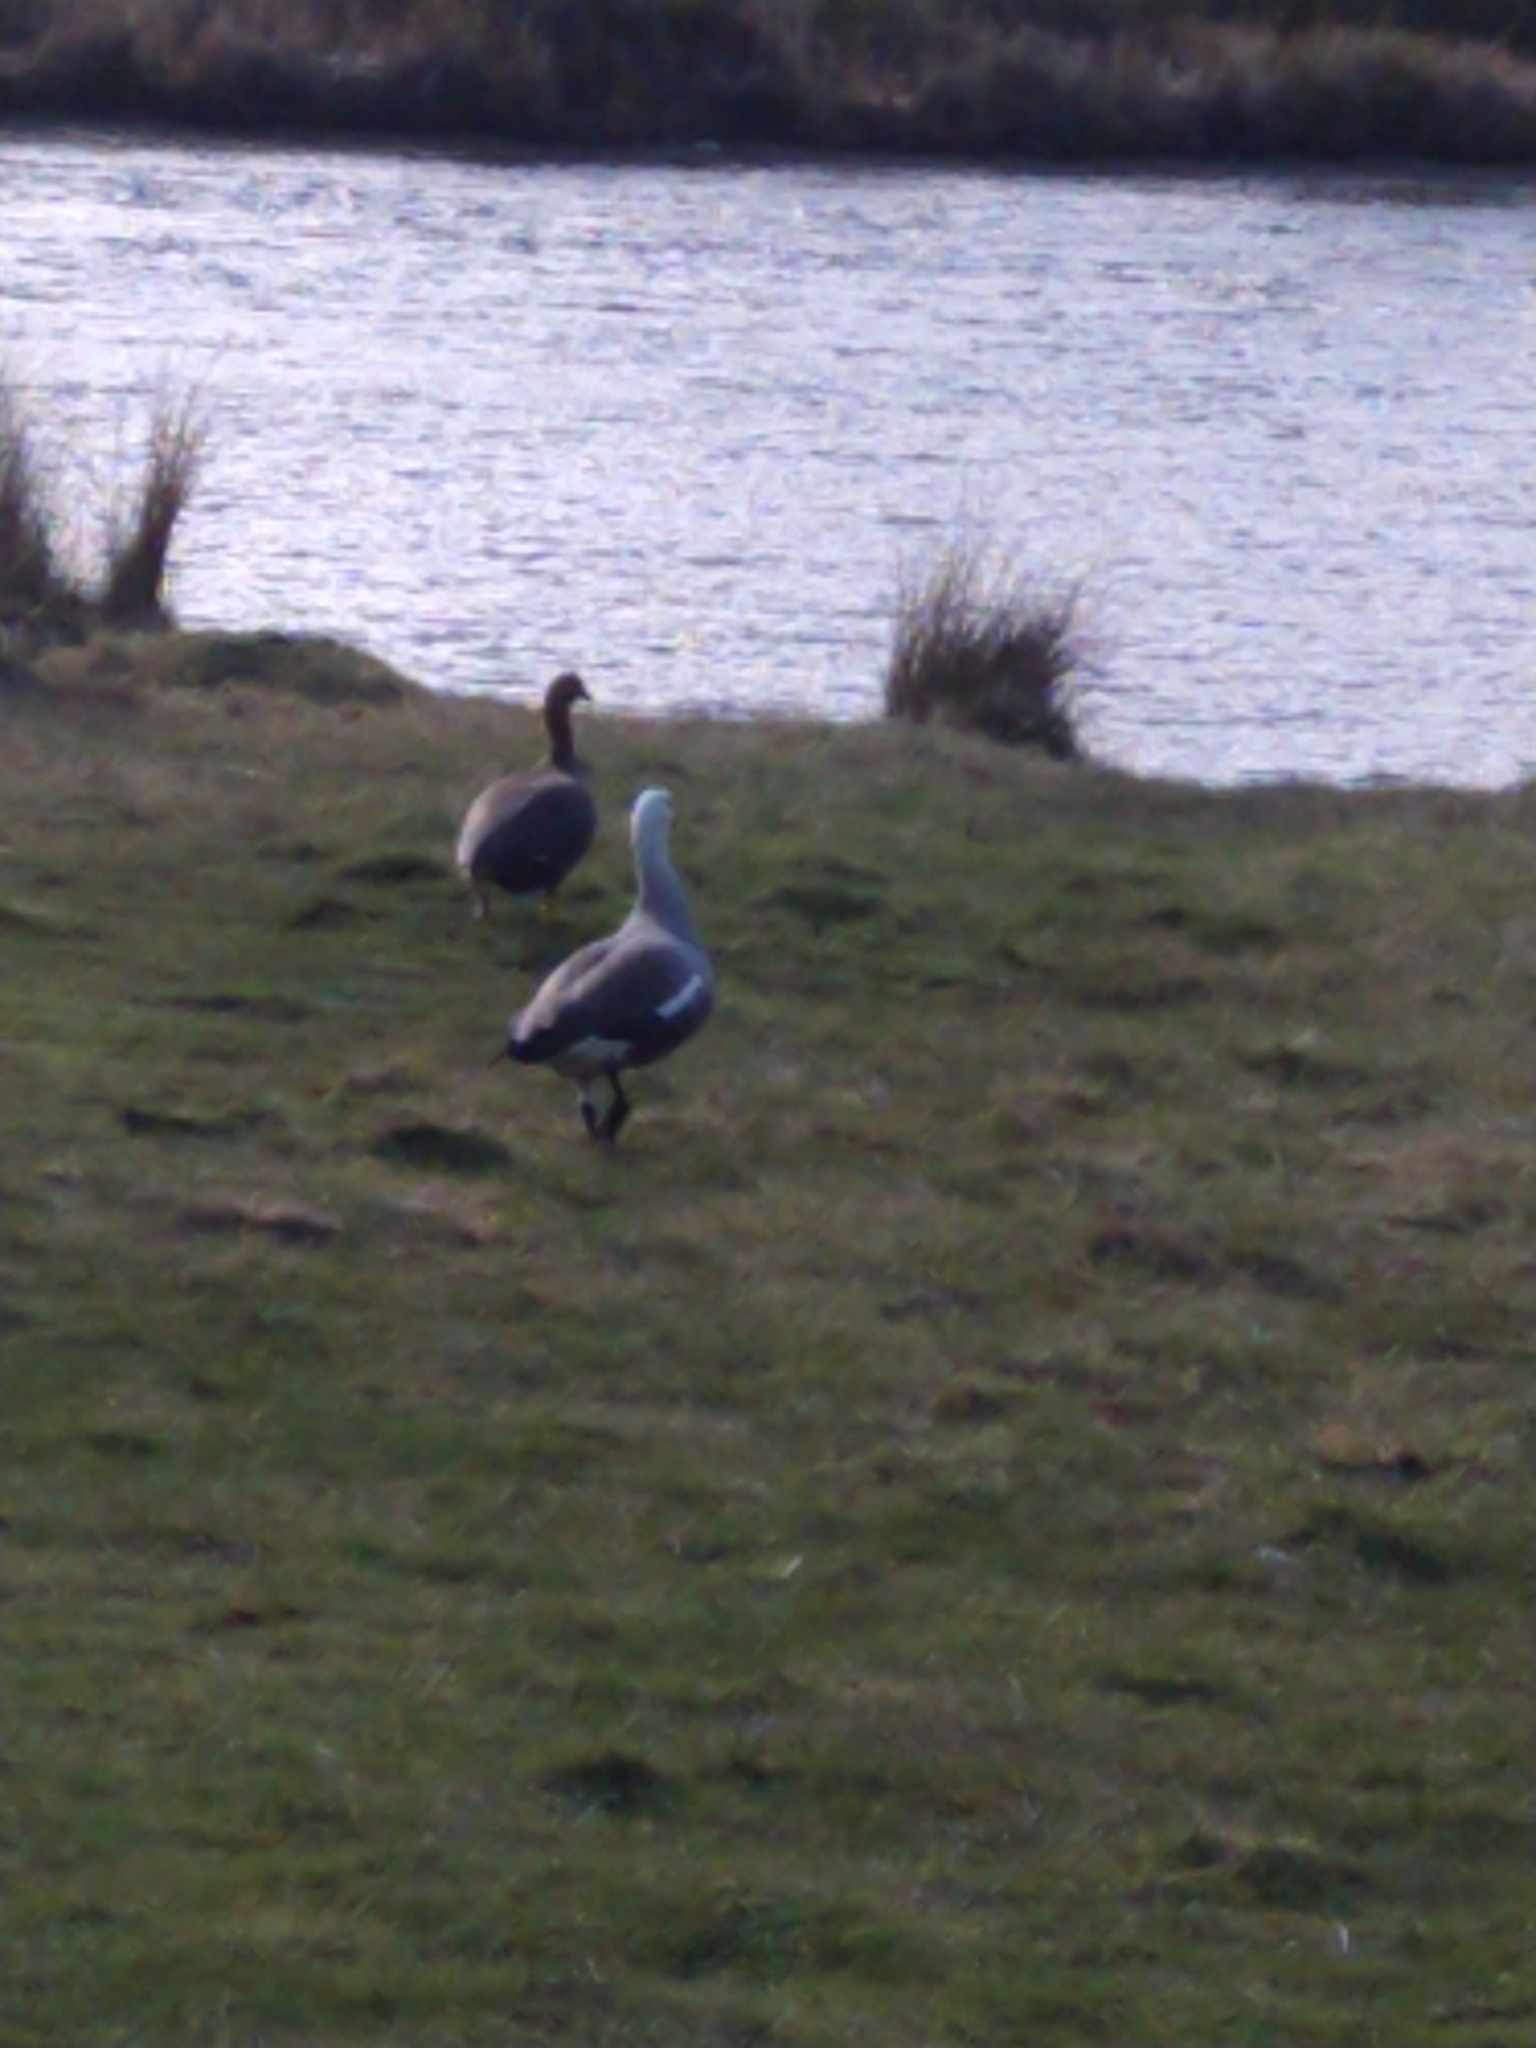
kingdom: Animalia
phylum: Chordata
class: Aves
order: Anseriformes
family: Anatidae
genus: Chloephaga
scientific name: Chloephaga picta
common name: Upland goose
